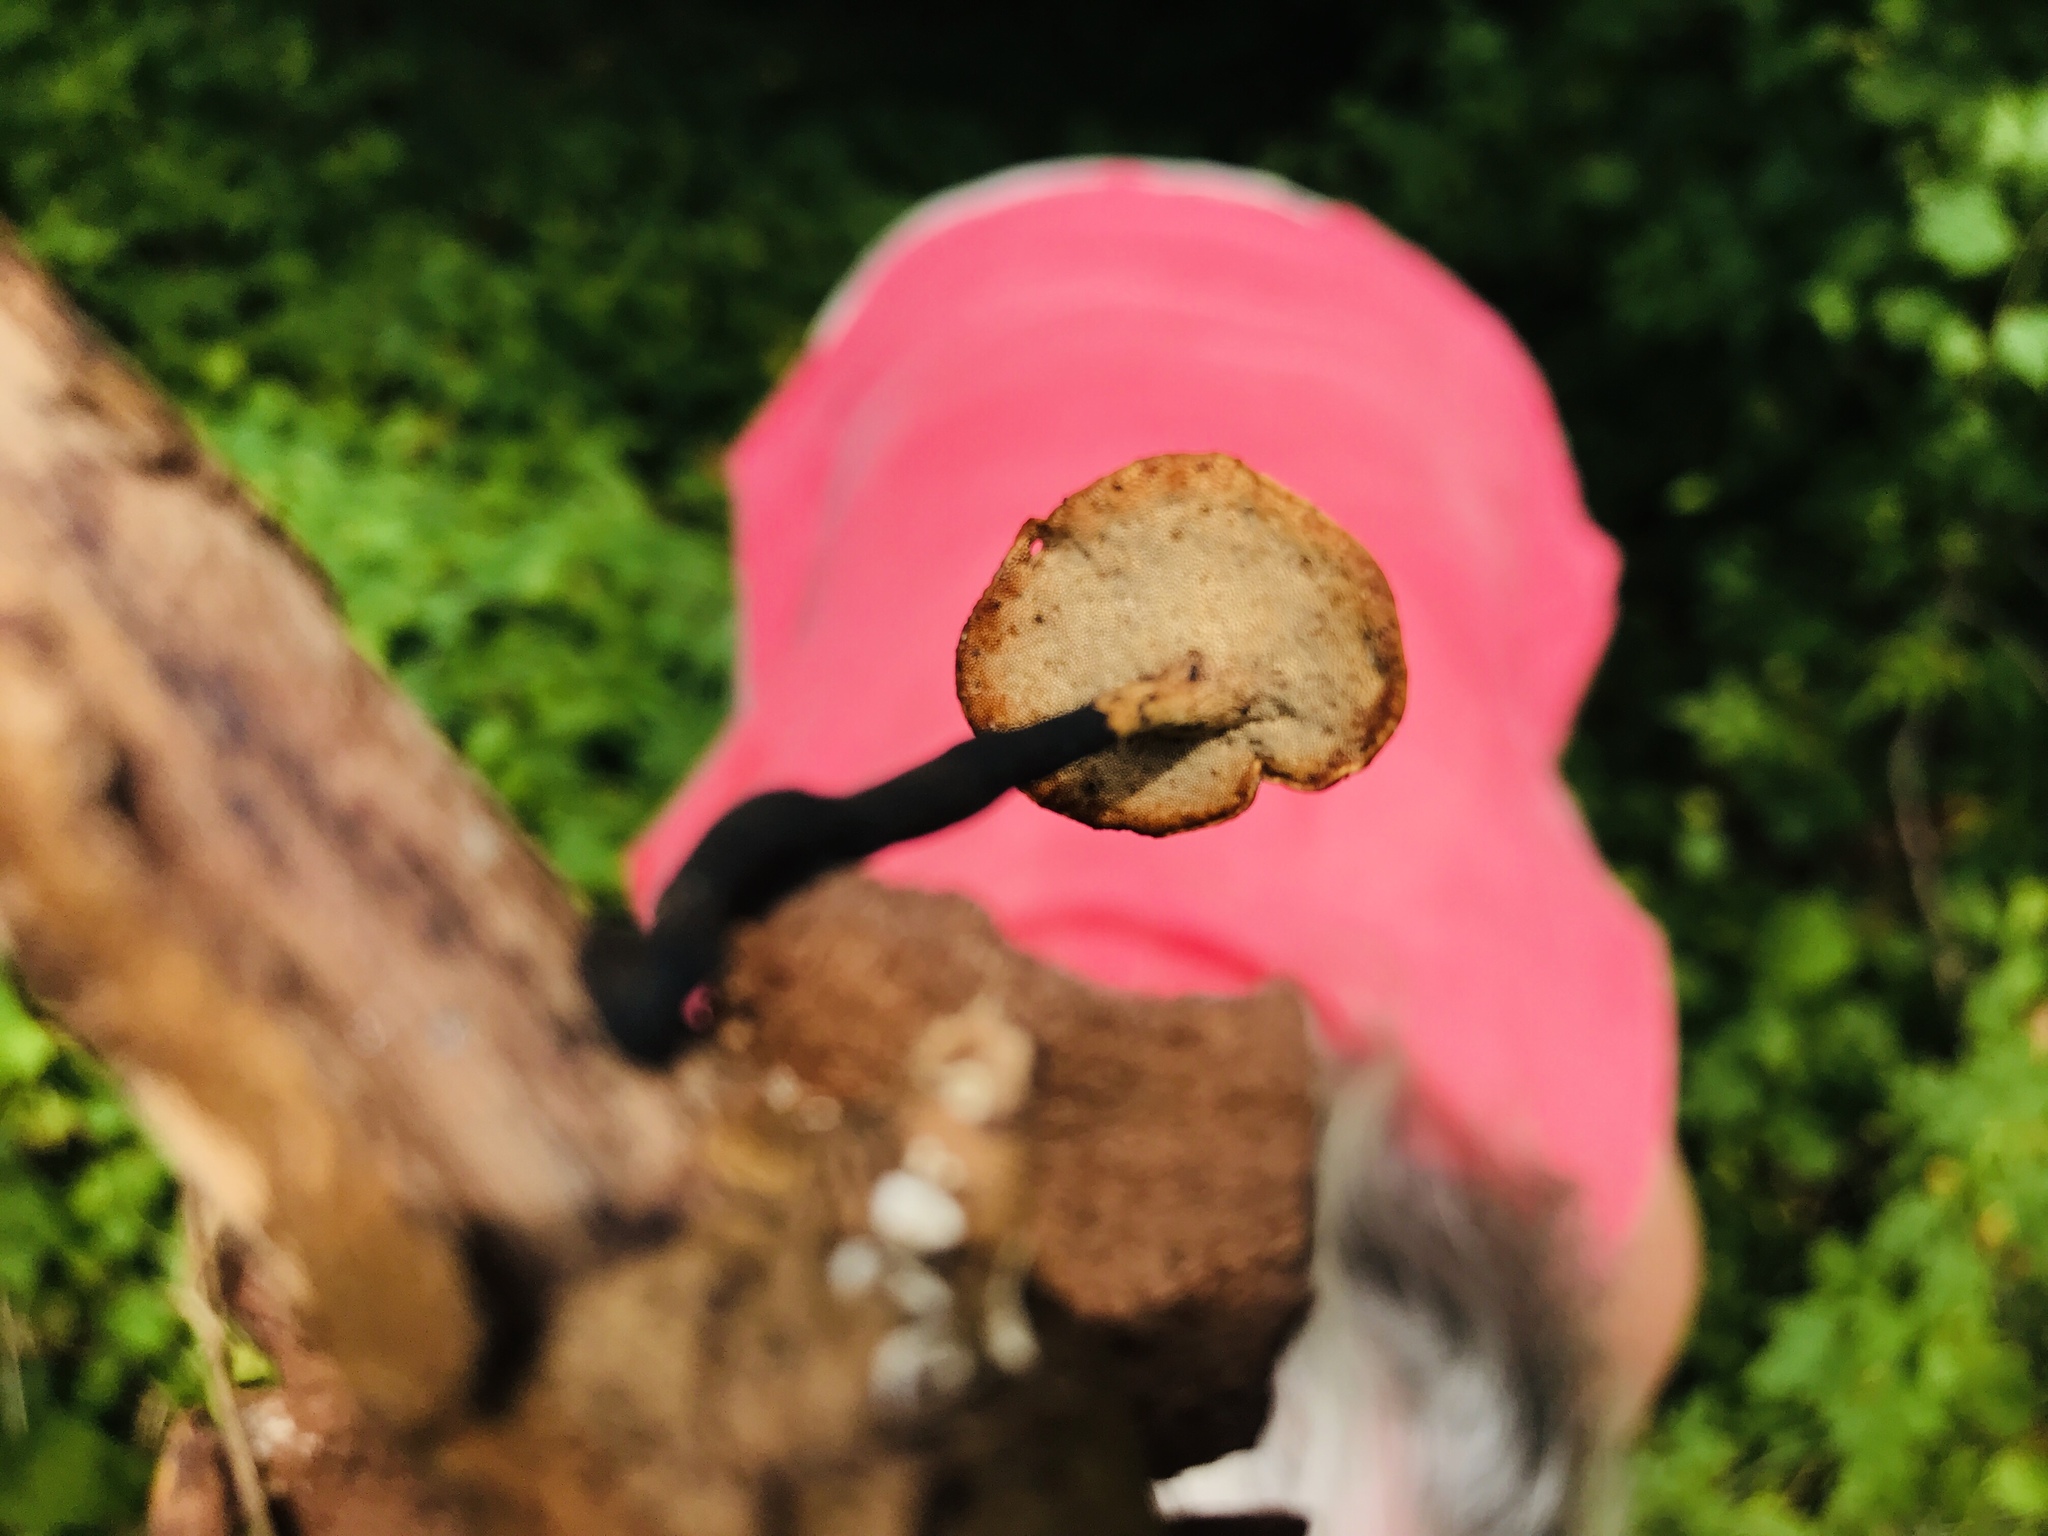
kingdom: Fungi
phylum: Basidiomycota
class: Agaricomycetes
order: Polyporales
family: Polyporaceae
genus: Cerioporus
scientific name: Cerioporus leptocephalus
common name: Blackfoot polypore
